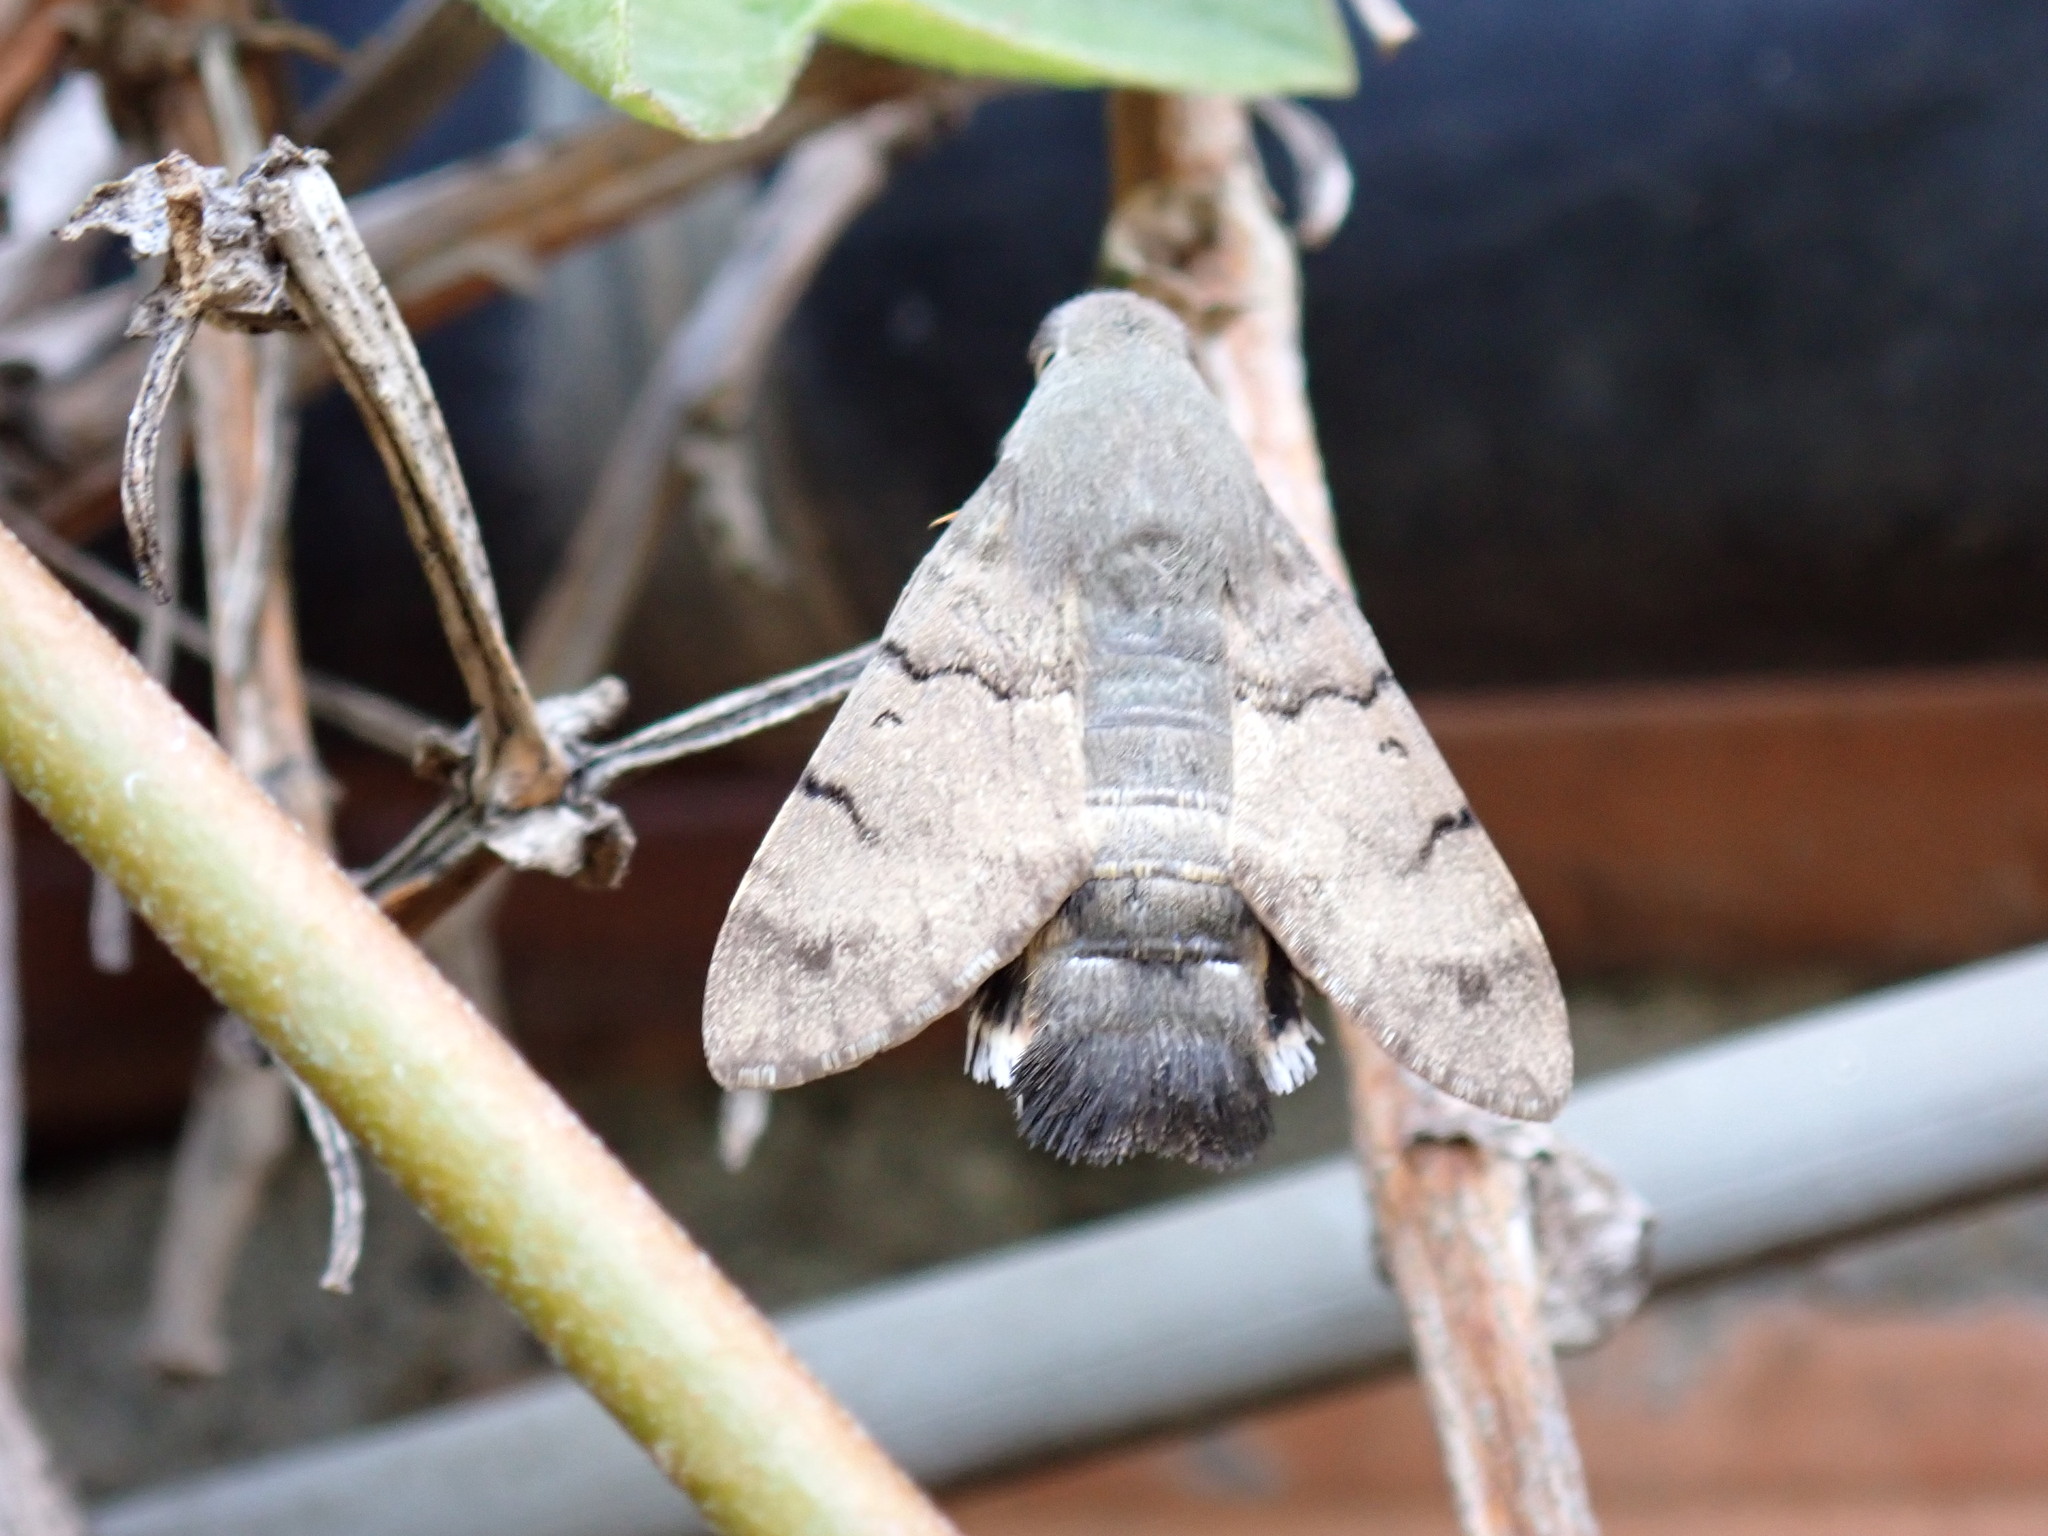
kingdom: Animalia
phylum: Arthropoda
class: Insecta
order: Lepidoptera
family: Sphingidae
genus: Macroglossum
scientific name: Macroglossum stellatarum
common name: Humming-bird hawk-moth
